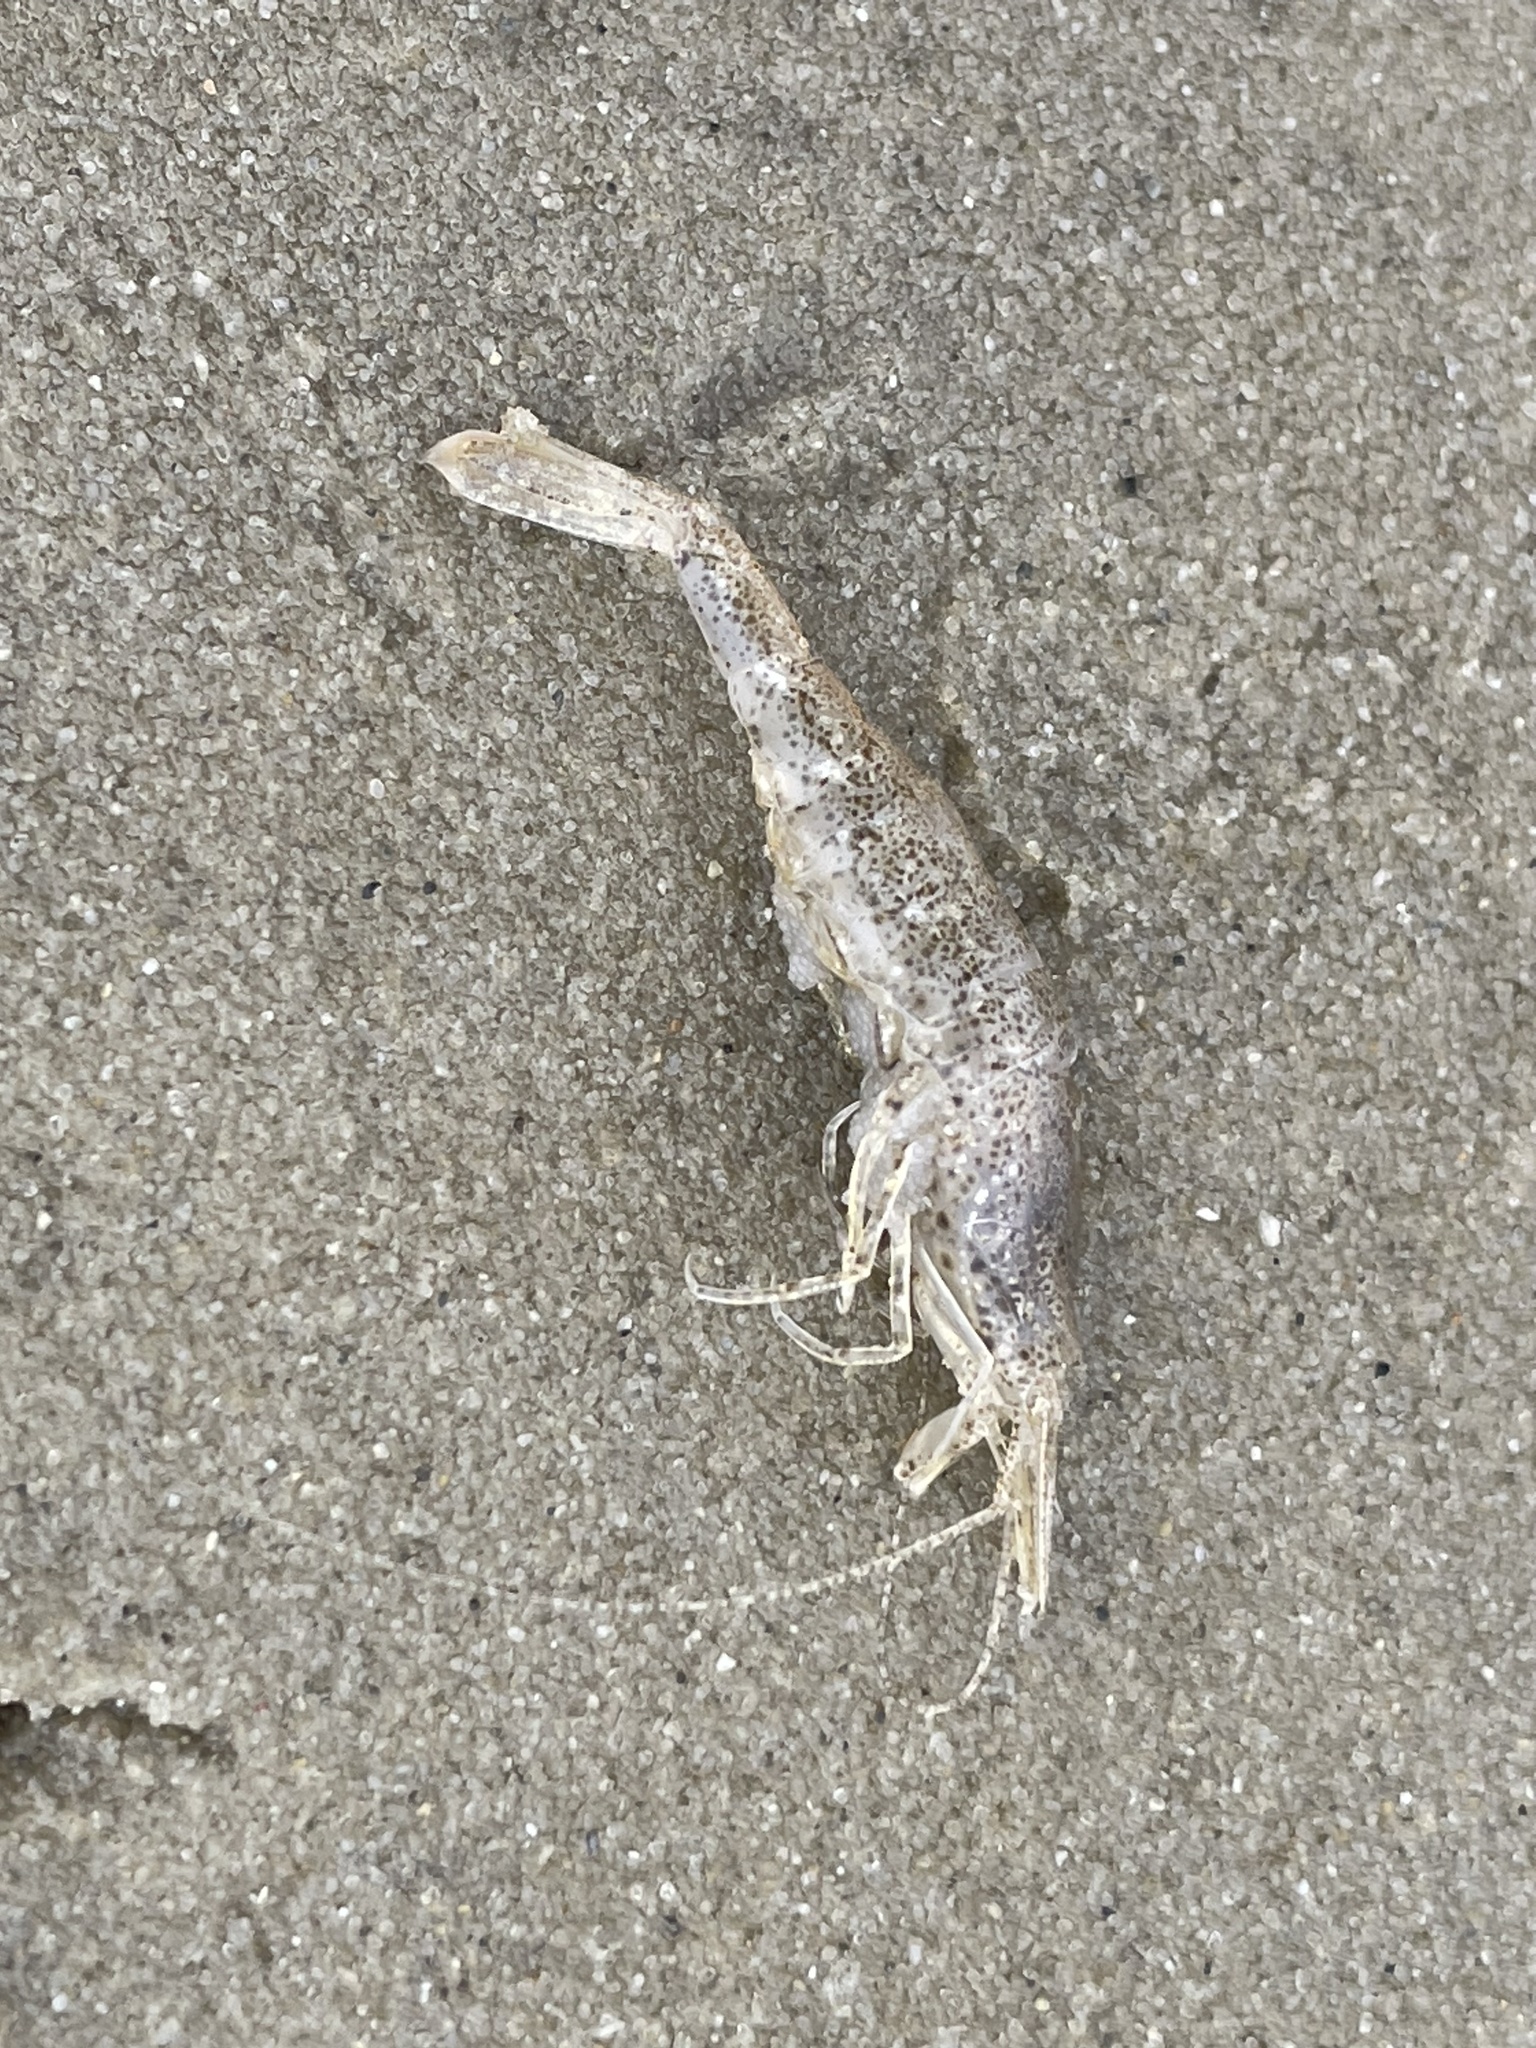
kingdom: Animalia
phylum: Arthropoda
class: Malacostraca
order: Decapoda
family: Crangonidae
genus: Crangon
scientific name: Crangon septemspinosa
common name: Bail shrimp
